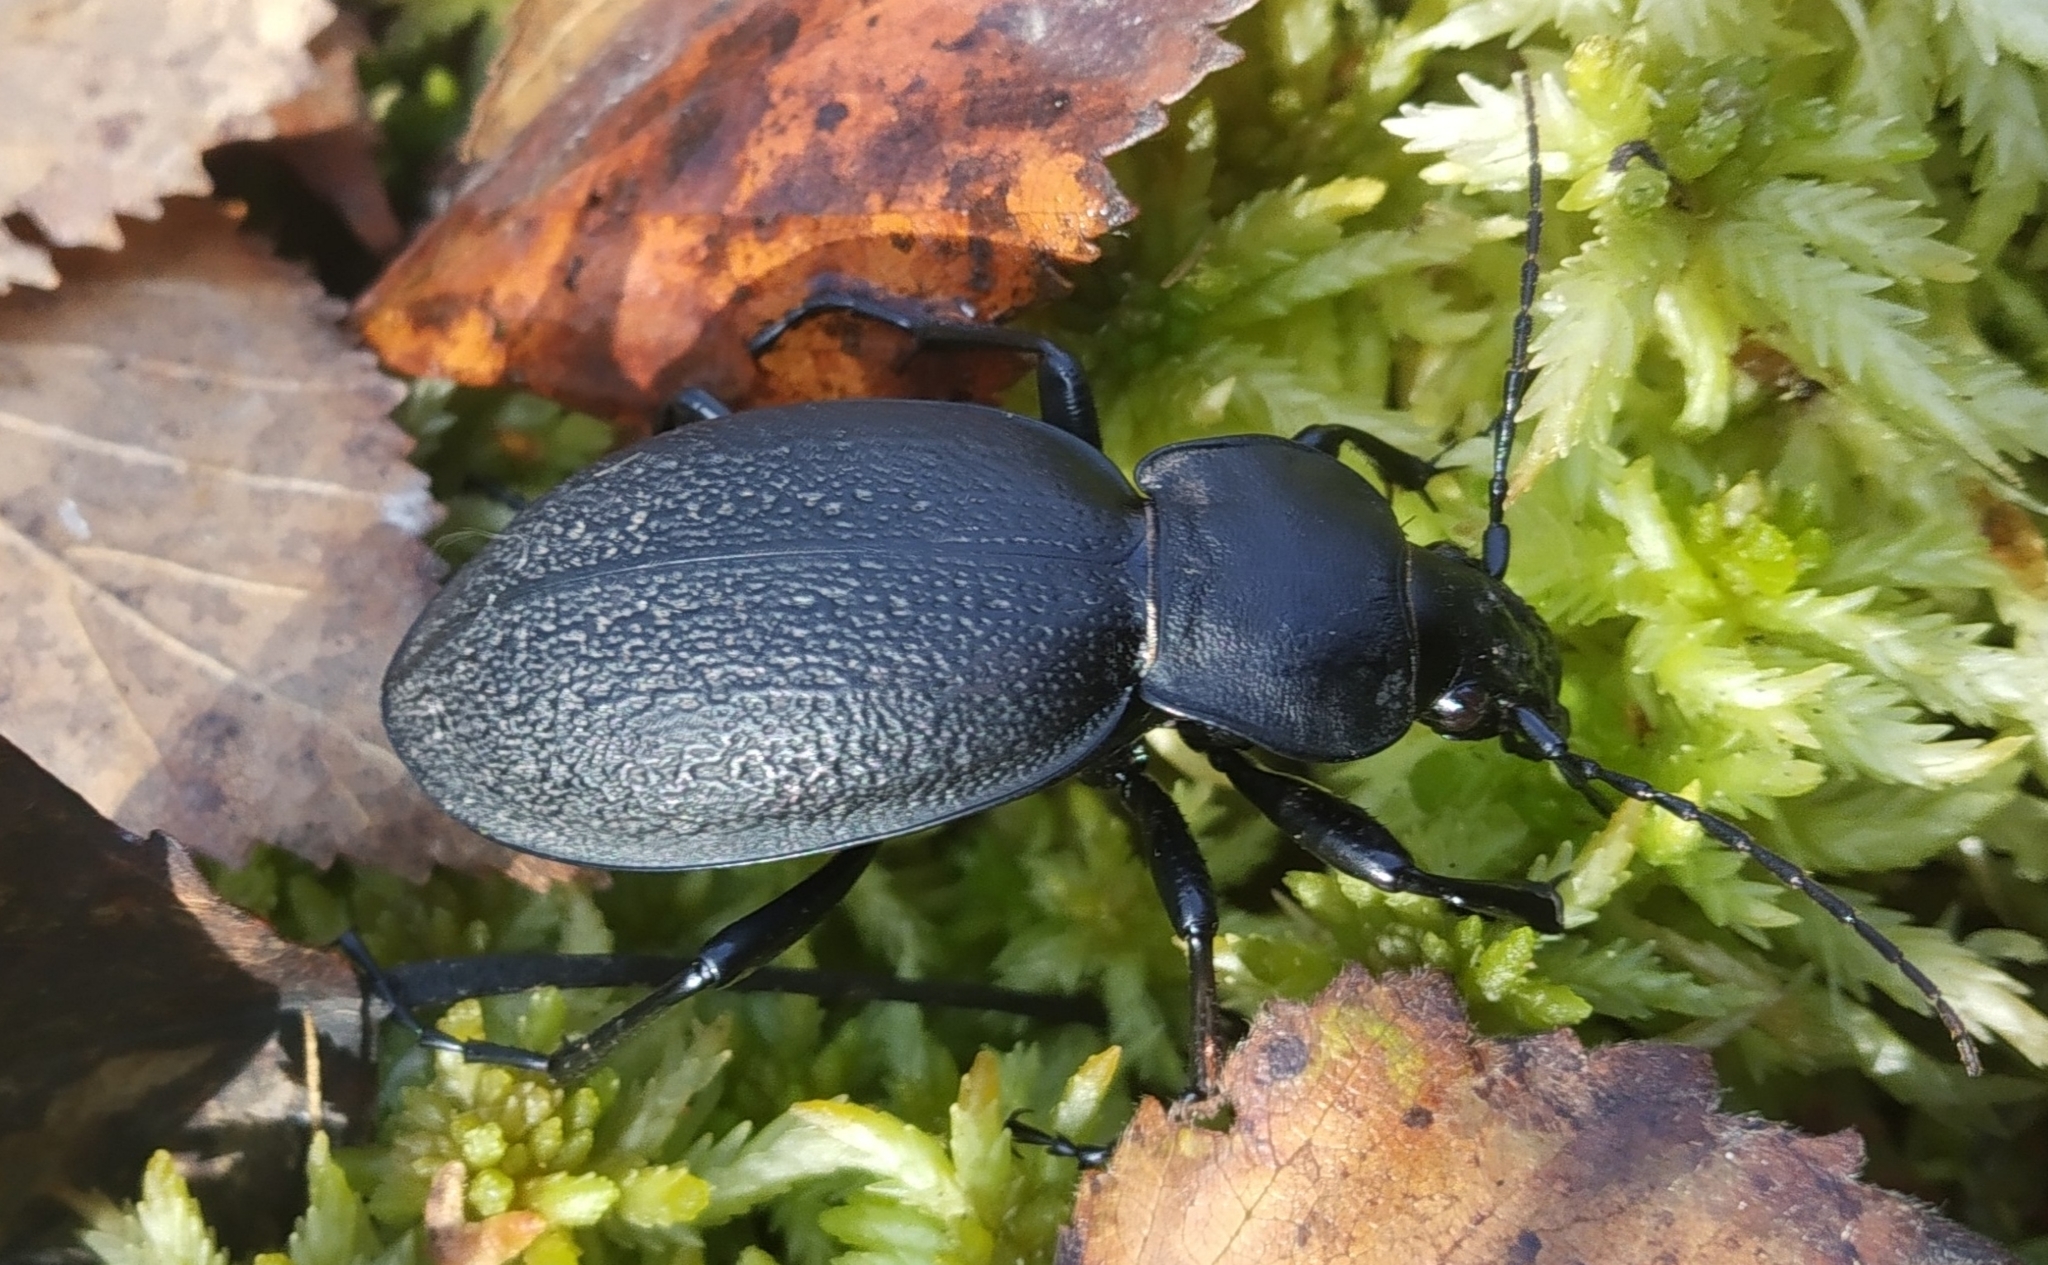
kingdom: Animalia
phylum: Arthropoda
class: Insecta
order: Coleoptera
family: Carabidae
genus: Carabus
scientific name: Carabus coriaceus
